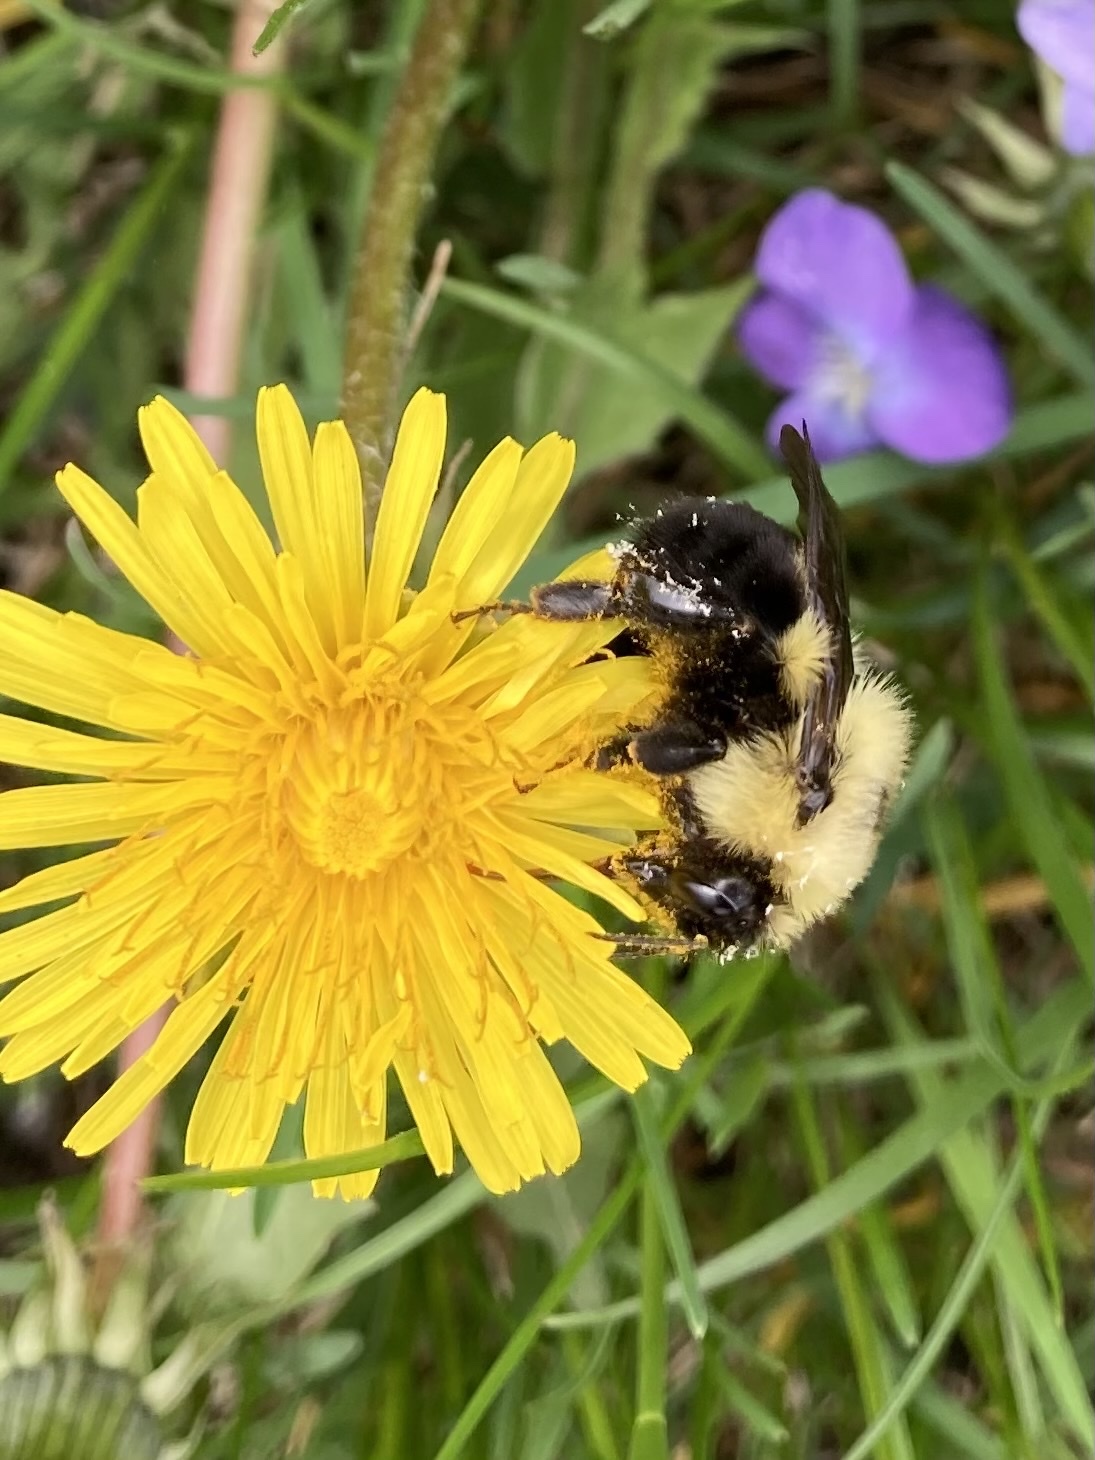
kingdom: Animalia
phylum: Arthropoda
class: Insecta
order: Hymenoptera
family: Apidae
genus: Bombus
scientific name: Bombus bimaculatus
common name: Two-spotted bumble bee
